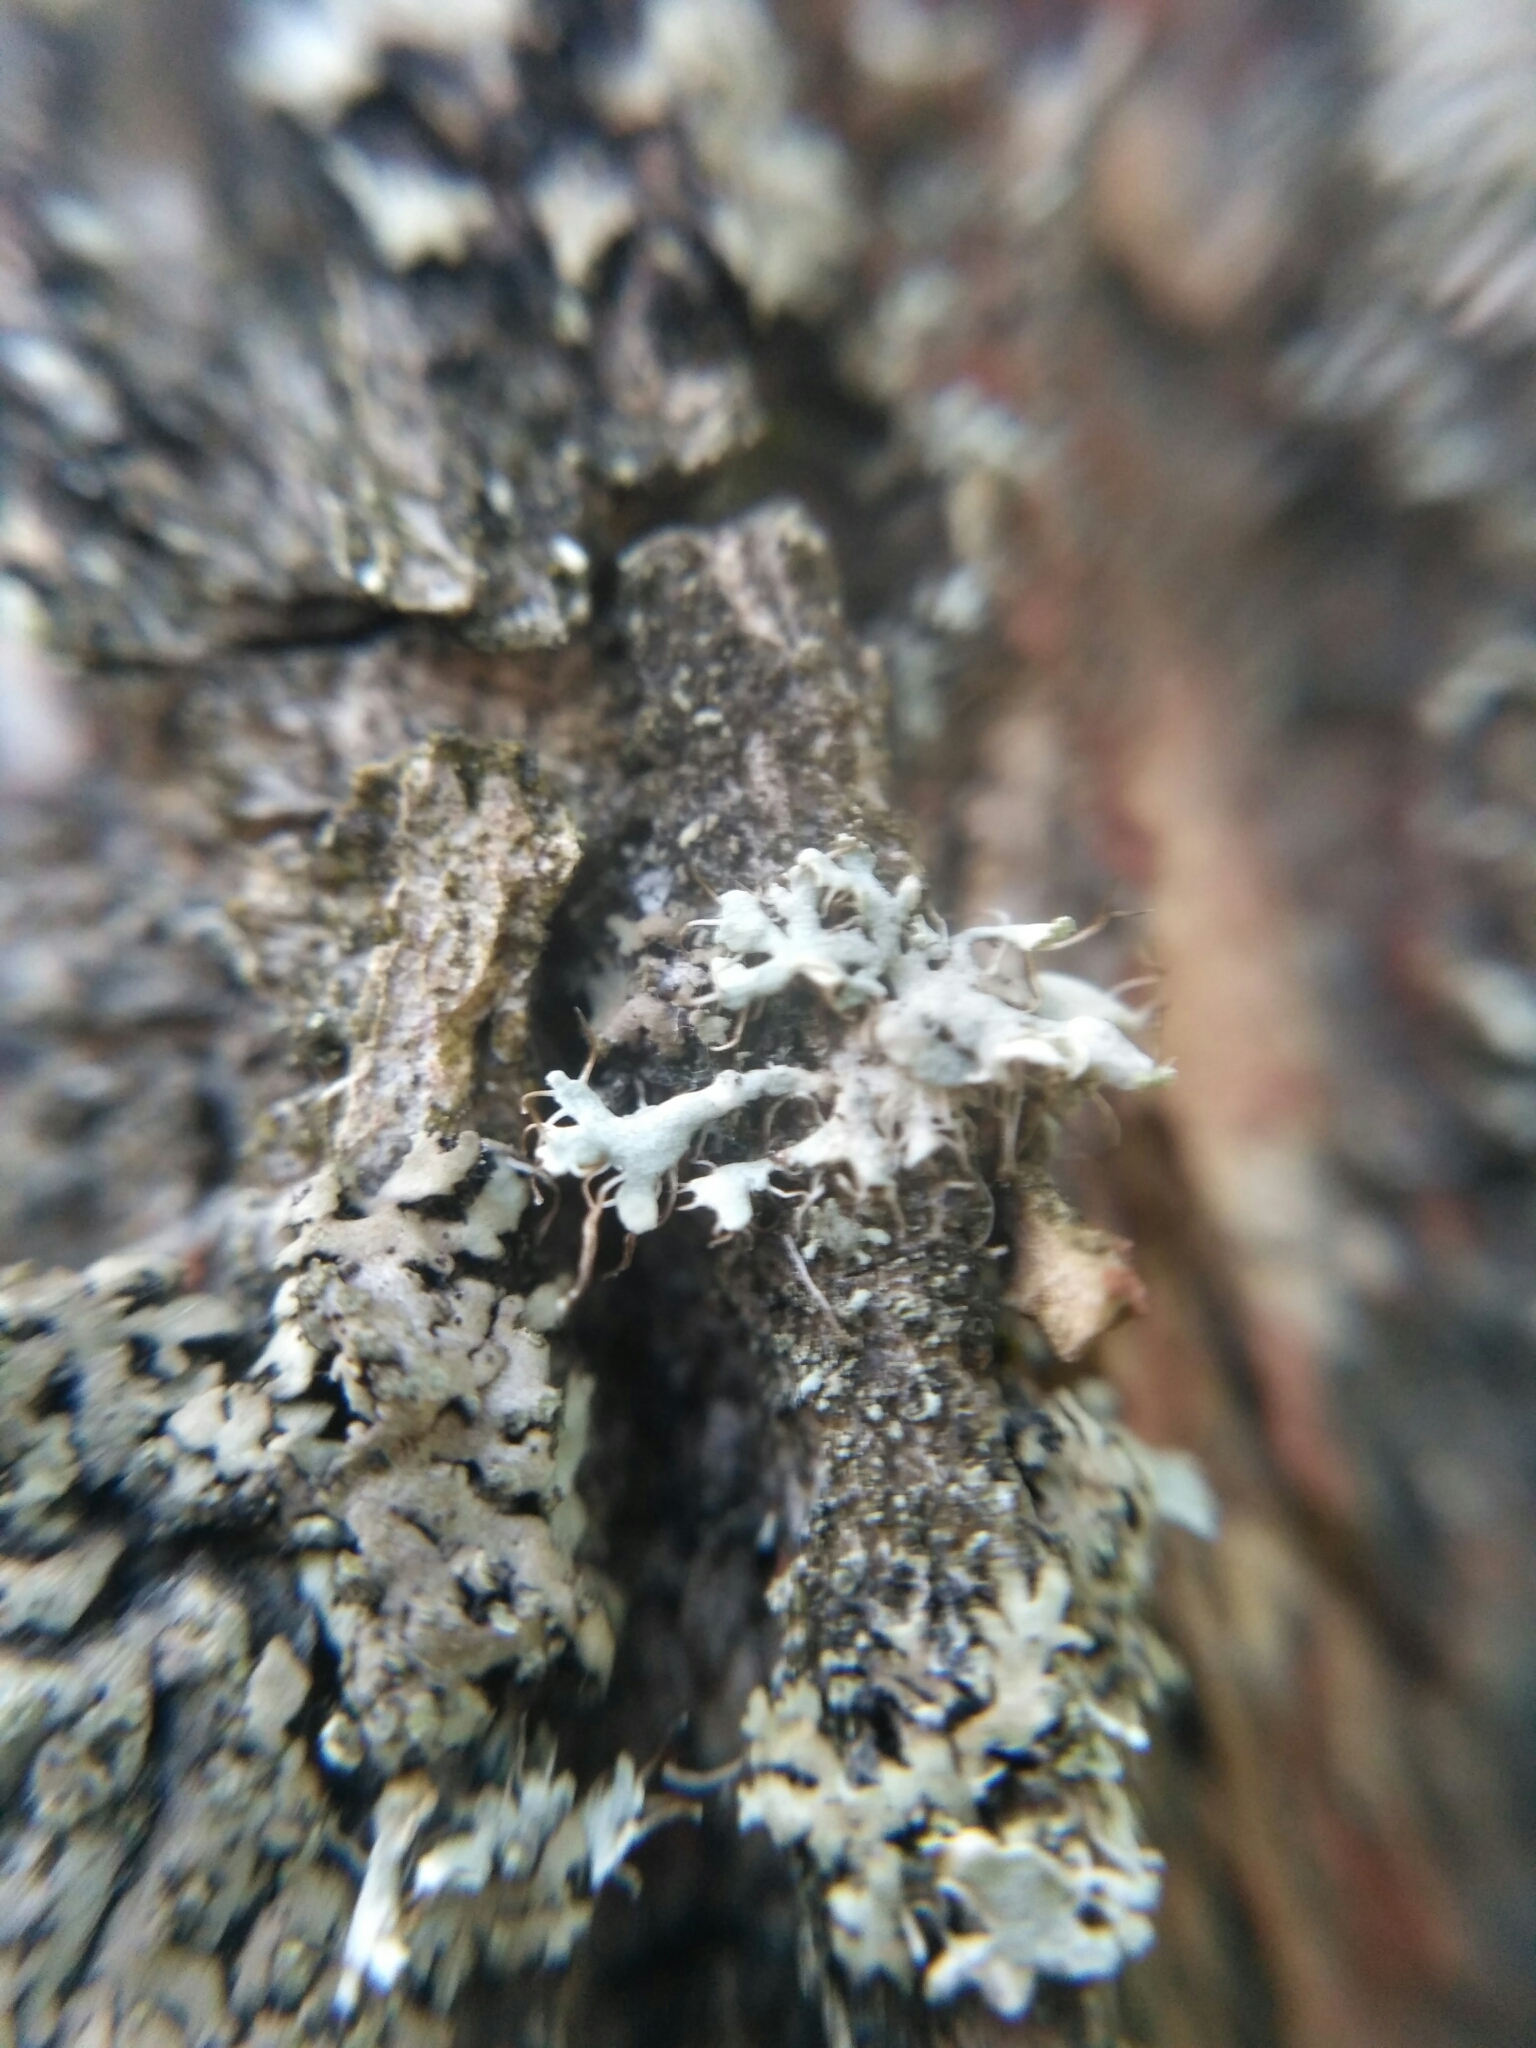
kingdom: Fungi
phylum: Ascomycota
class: Lecanoromycetes
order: Caliciales
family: Physciaceae
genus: Physcia
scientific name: Physcia tenella
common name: Fringed rosette lichen
